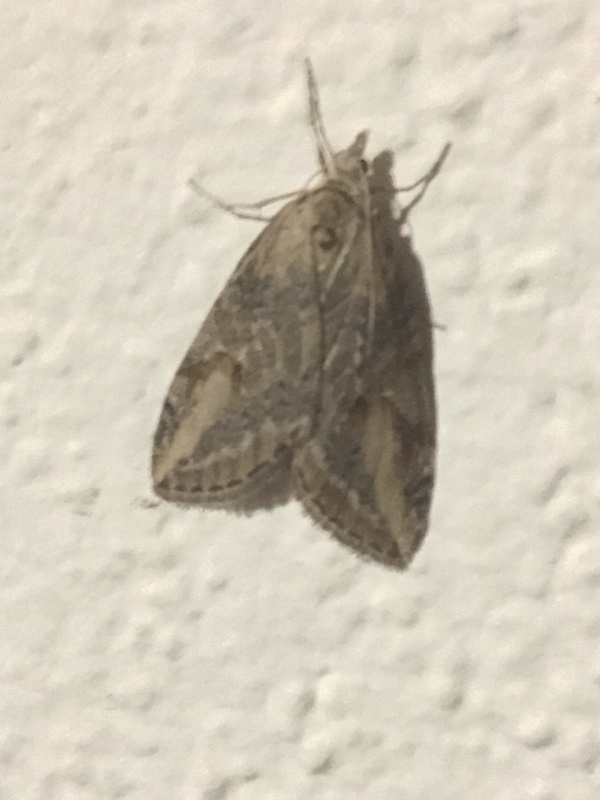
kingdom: Animalia
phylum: Arthropoda
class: Insecta
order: Lepidoptera
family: Geometridae
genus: Chesias
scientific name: Chesias isabella
